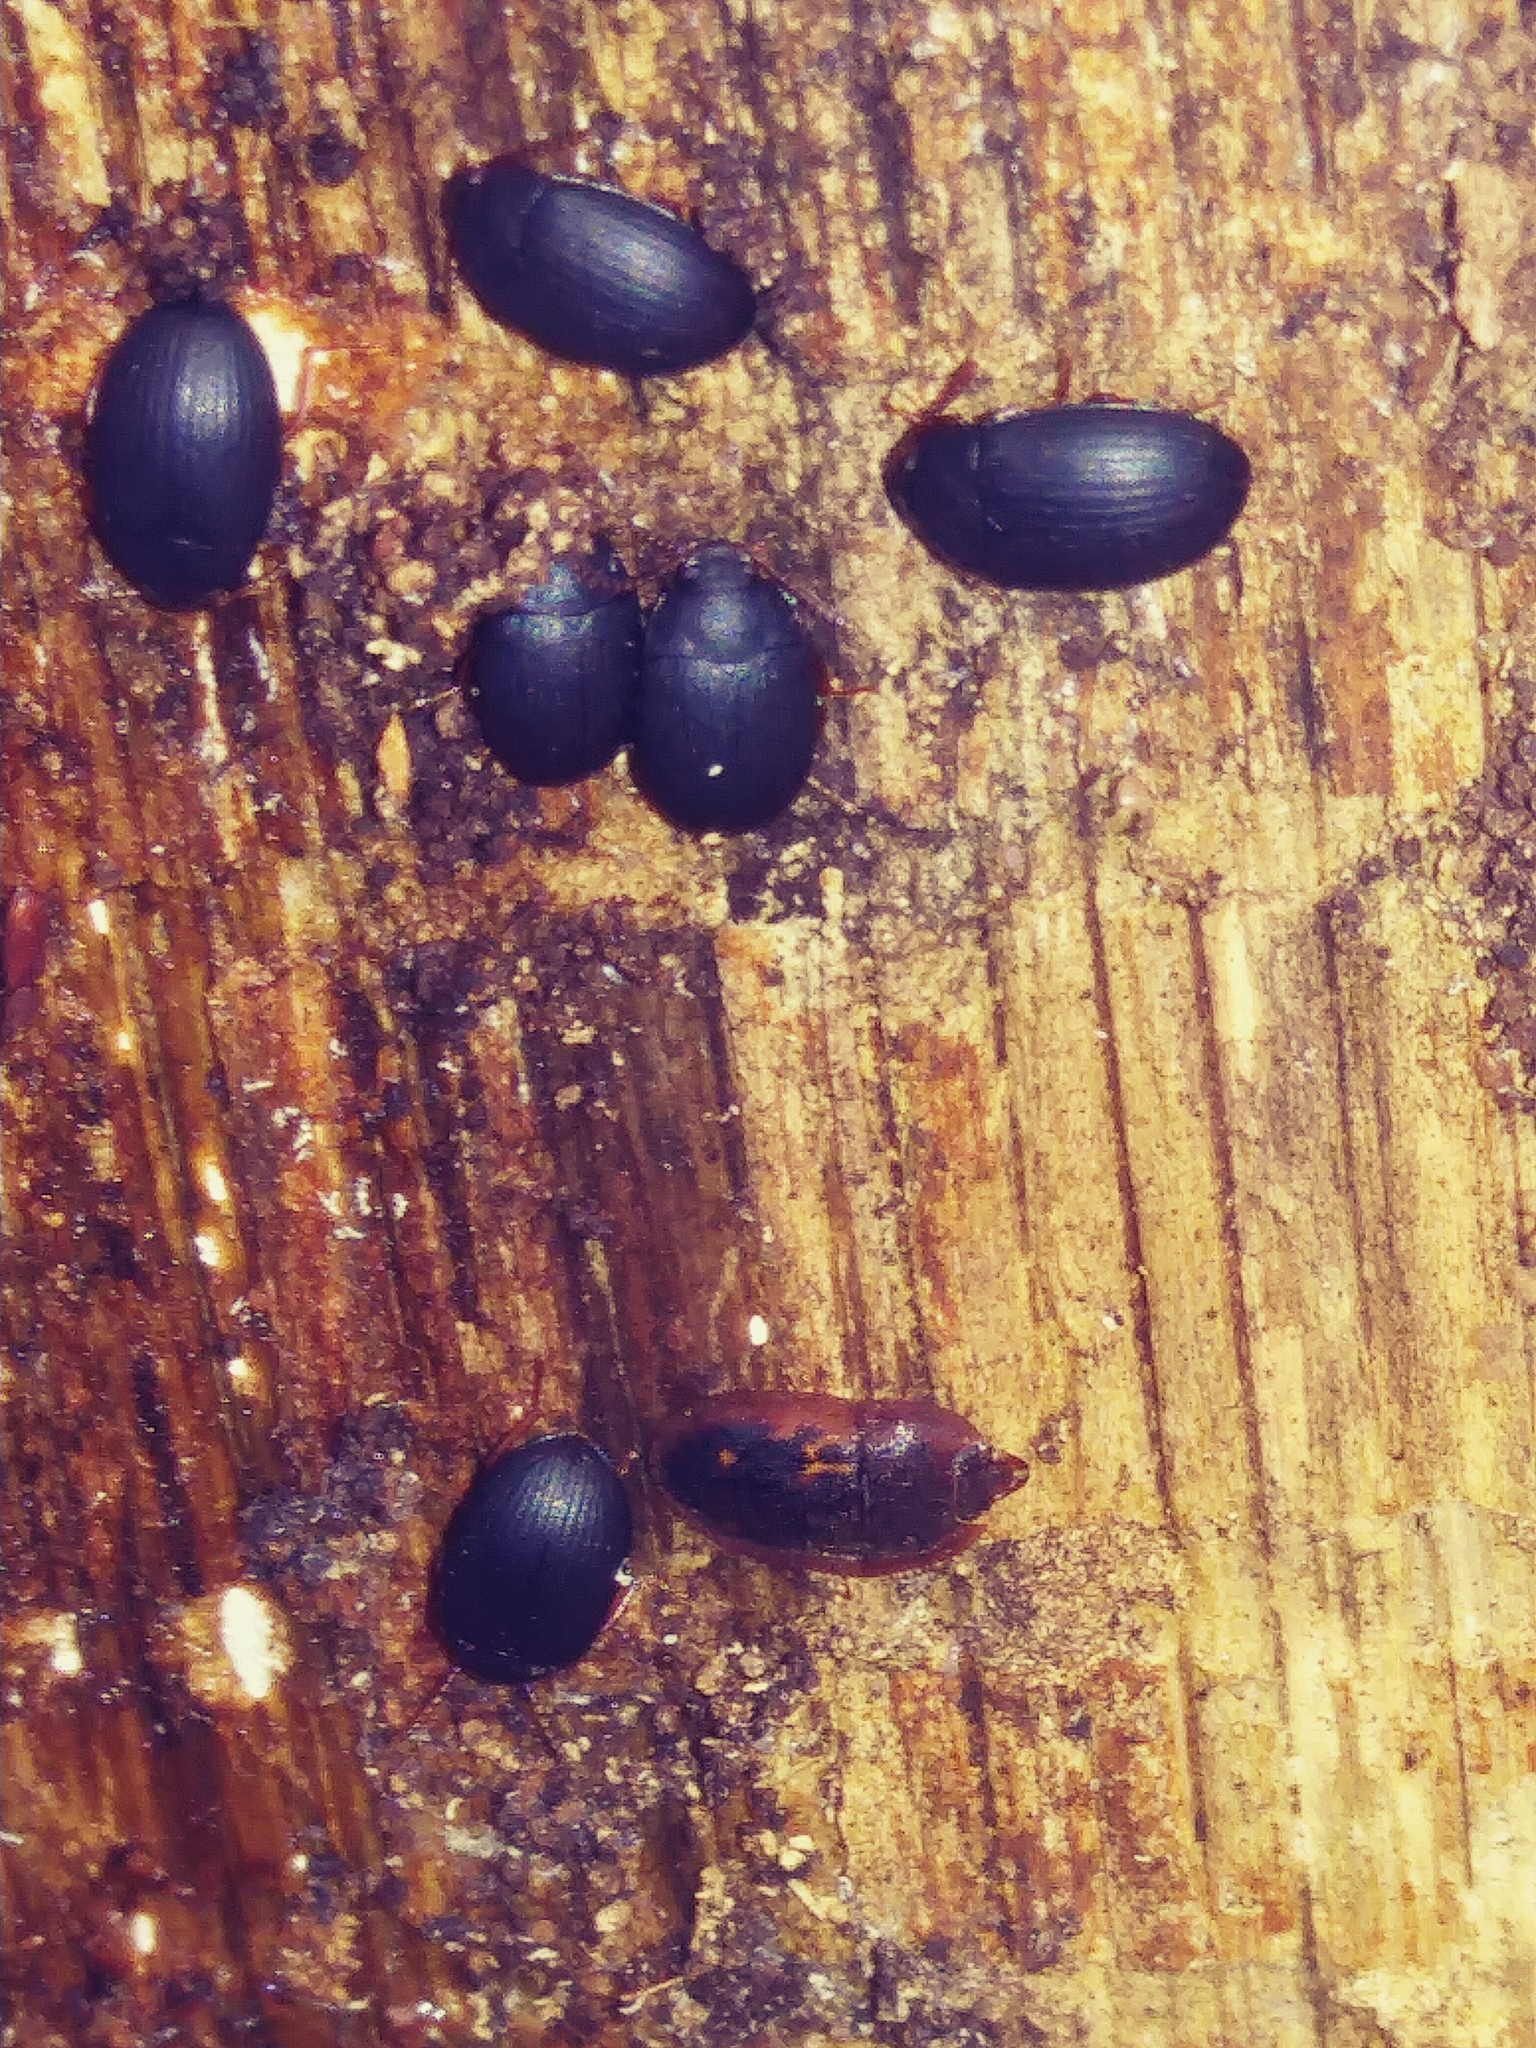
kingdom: Animalia
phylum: Arthropoda
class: Insecta
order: Coleoptera
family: Nitidulidae
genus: Prometopia
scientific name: Prometopia sexmaculata
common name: Six-spotted sap-feeding beetle
